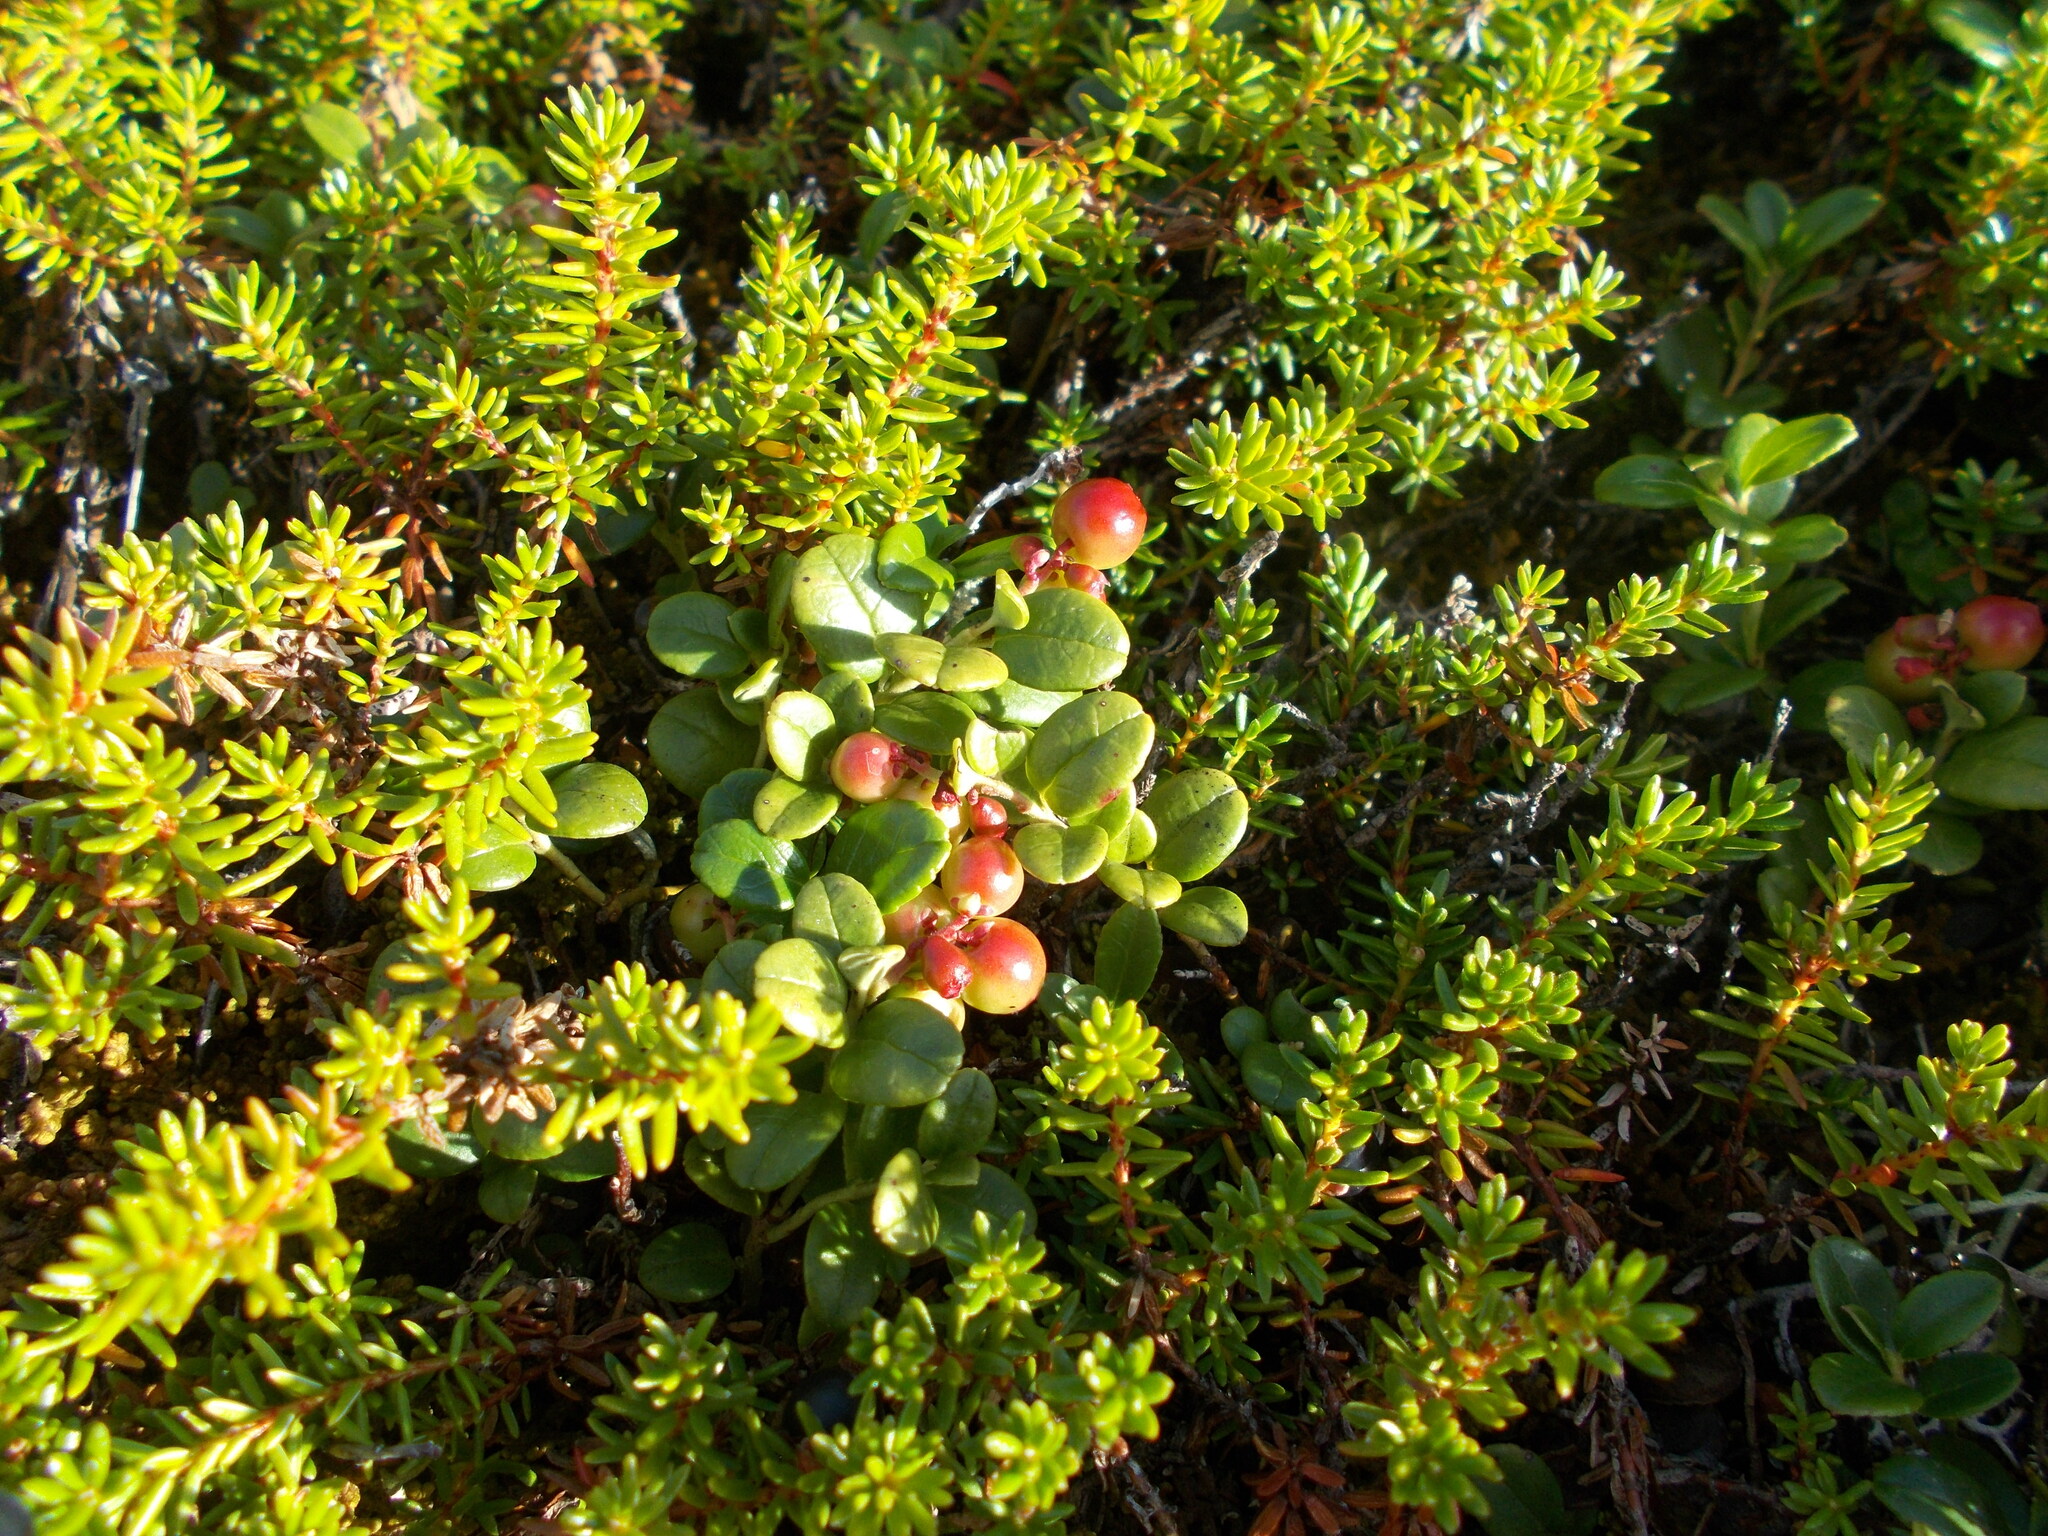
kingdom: Plantae
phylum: Tracheophyta
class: Magnoliopsida
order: Ericales
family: Ericaceae
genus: Empetrum
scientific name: Empetrum nigrum
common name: Black crowberry
